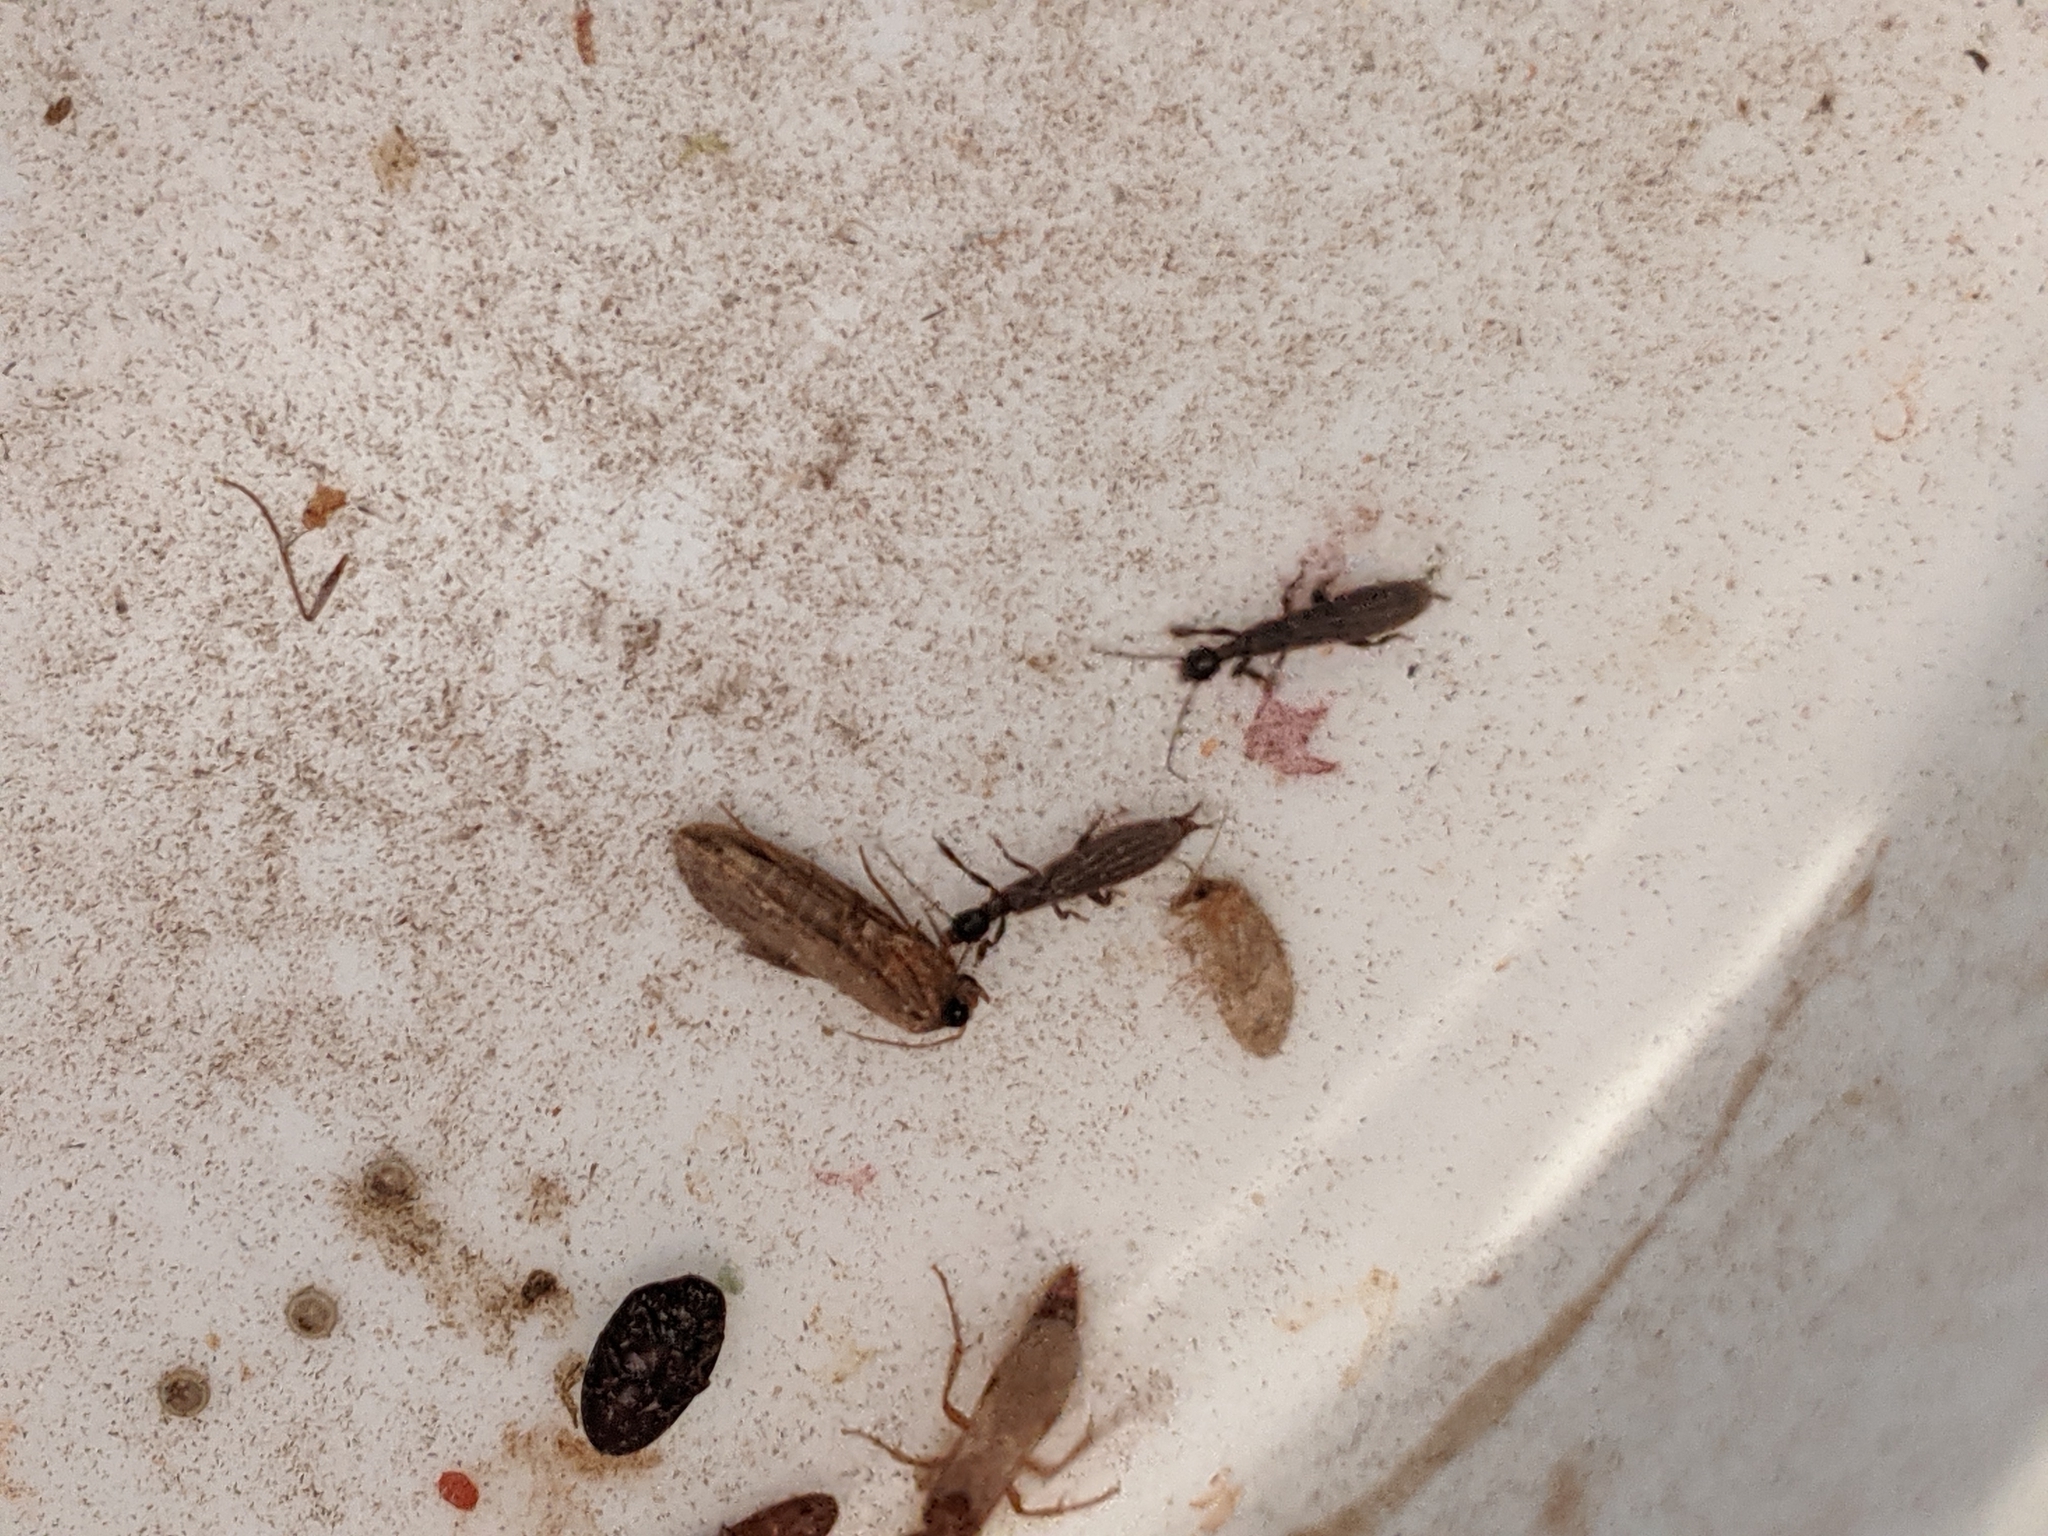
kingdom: Animalia
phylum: Arthropoda
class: Insecta
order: Embioptera
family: Oligotomidae
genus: Oligotoma
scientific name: Oligotoma nigra
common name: Black webspinner
